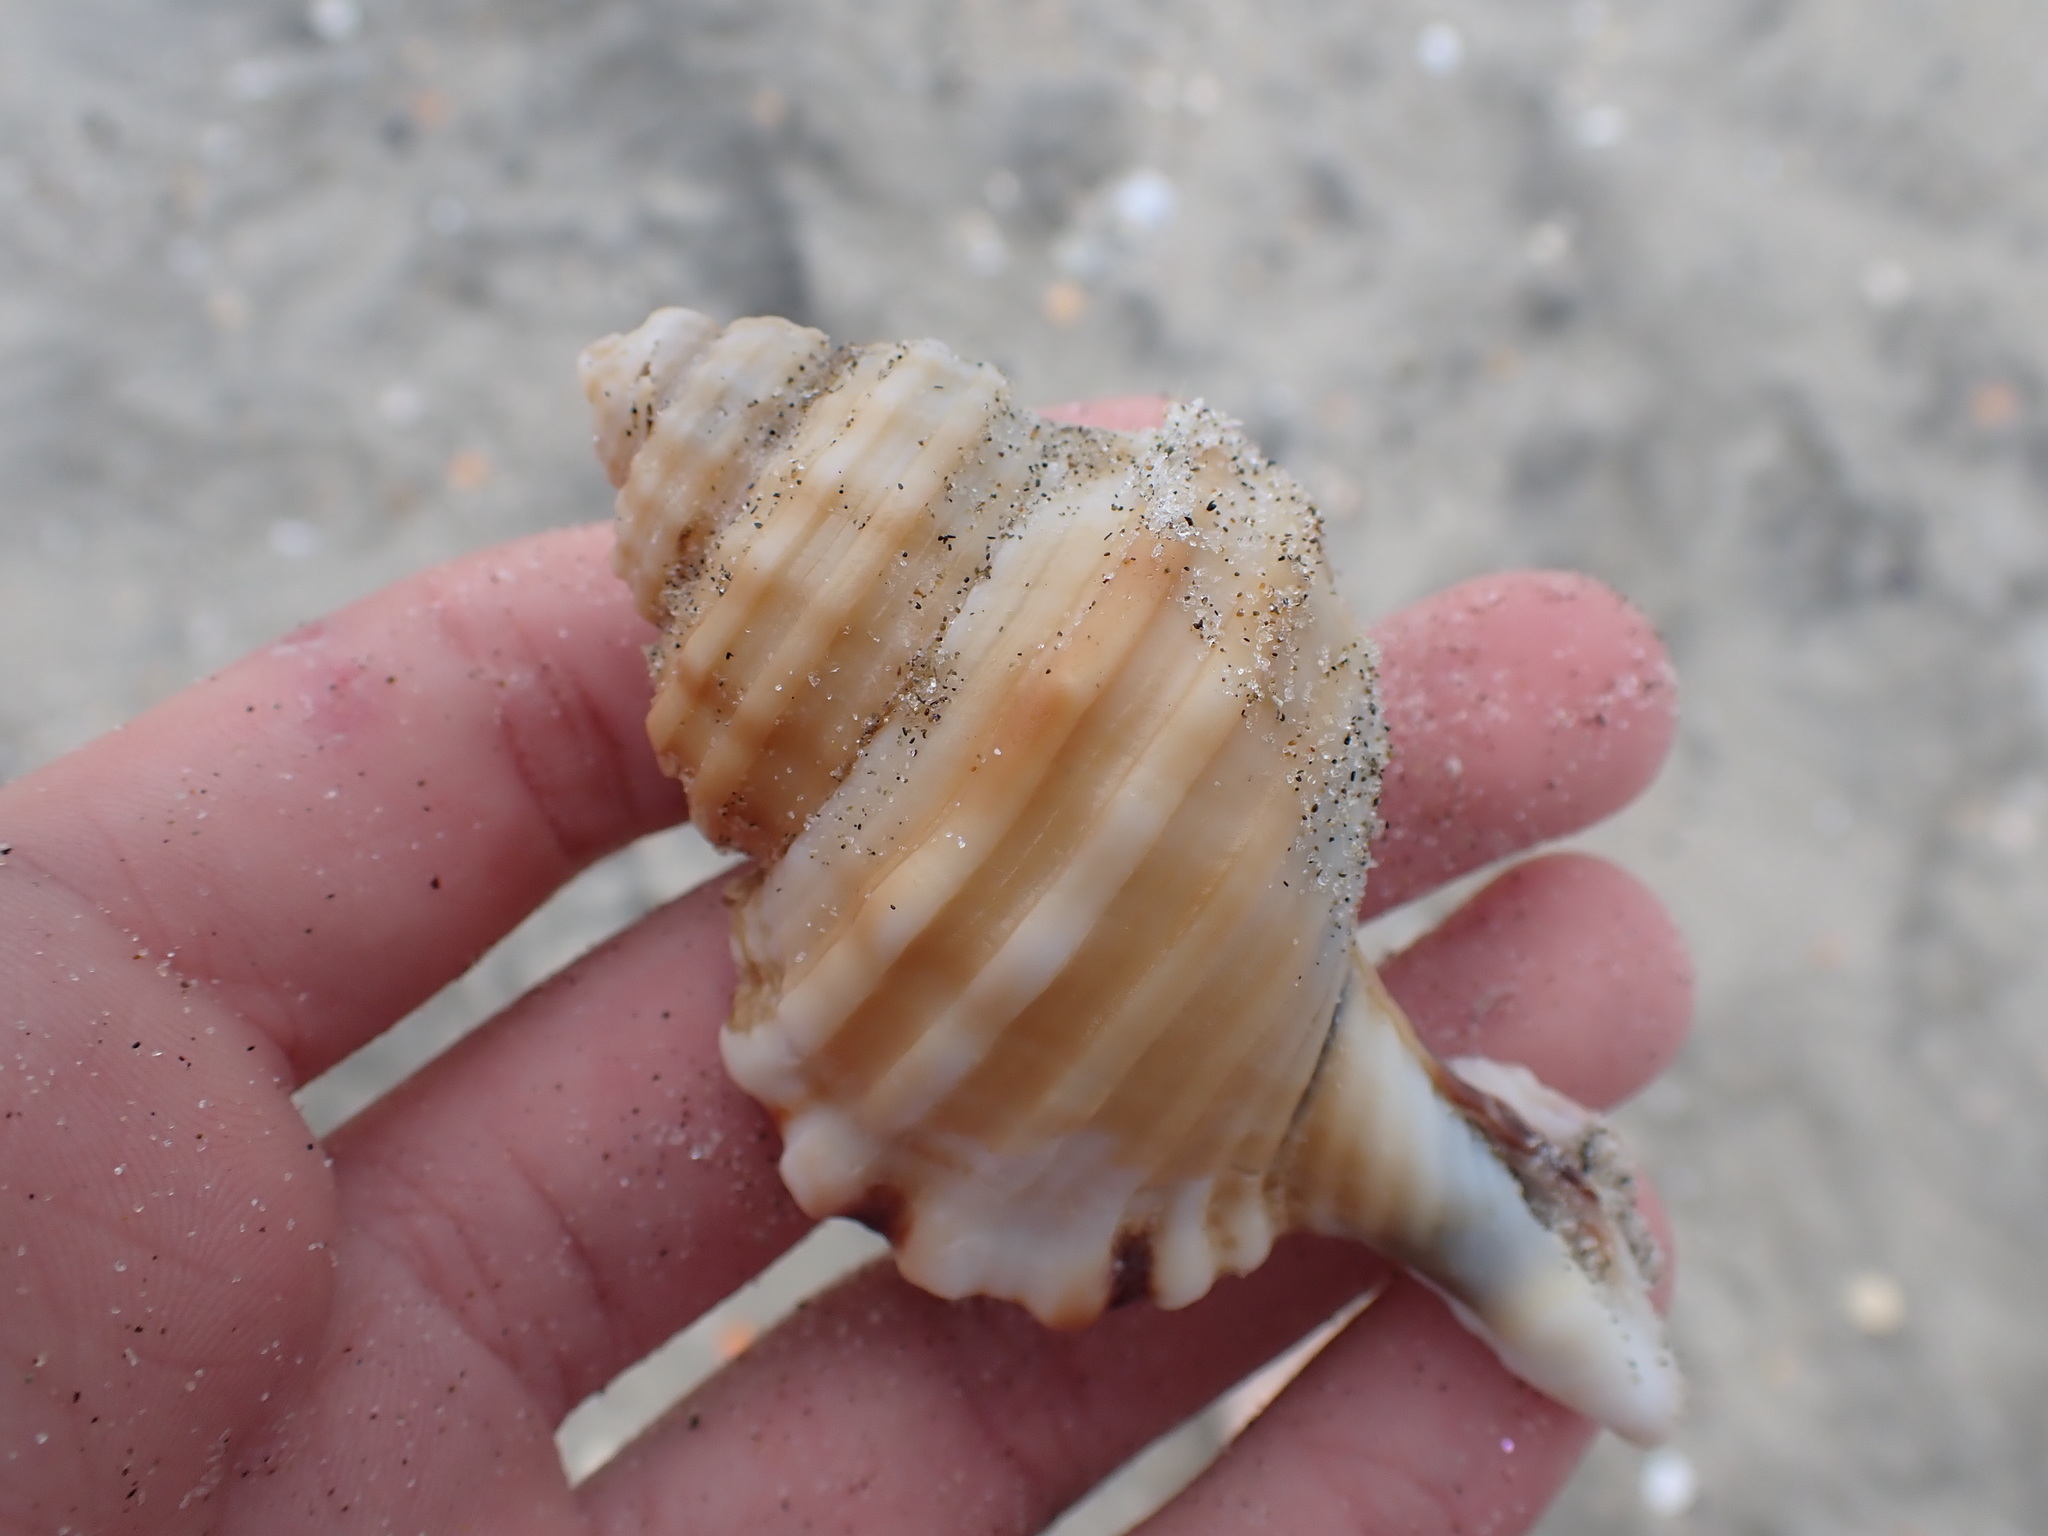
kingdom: Animalia
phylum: Mollusca
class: Gastropoda
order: Littorinimorpha
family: Cymatiidae
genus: Monoplex
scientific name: Monoplex parthenopeus
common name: Giant triton
